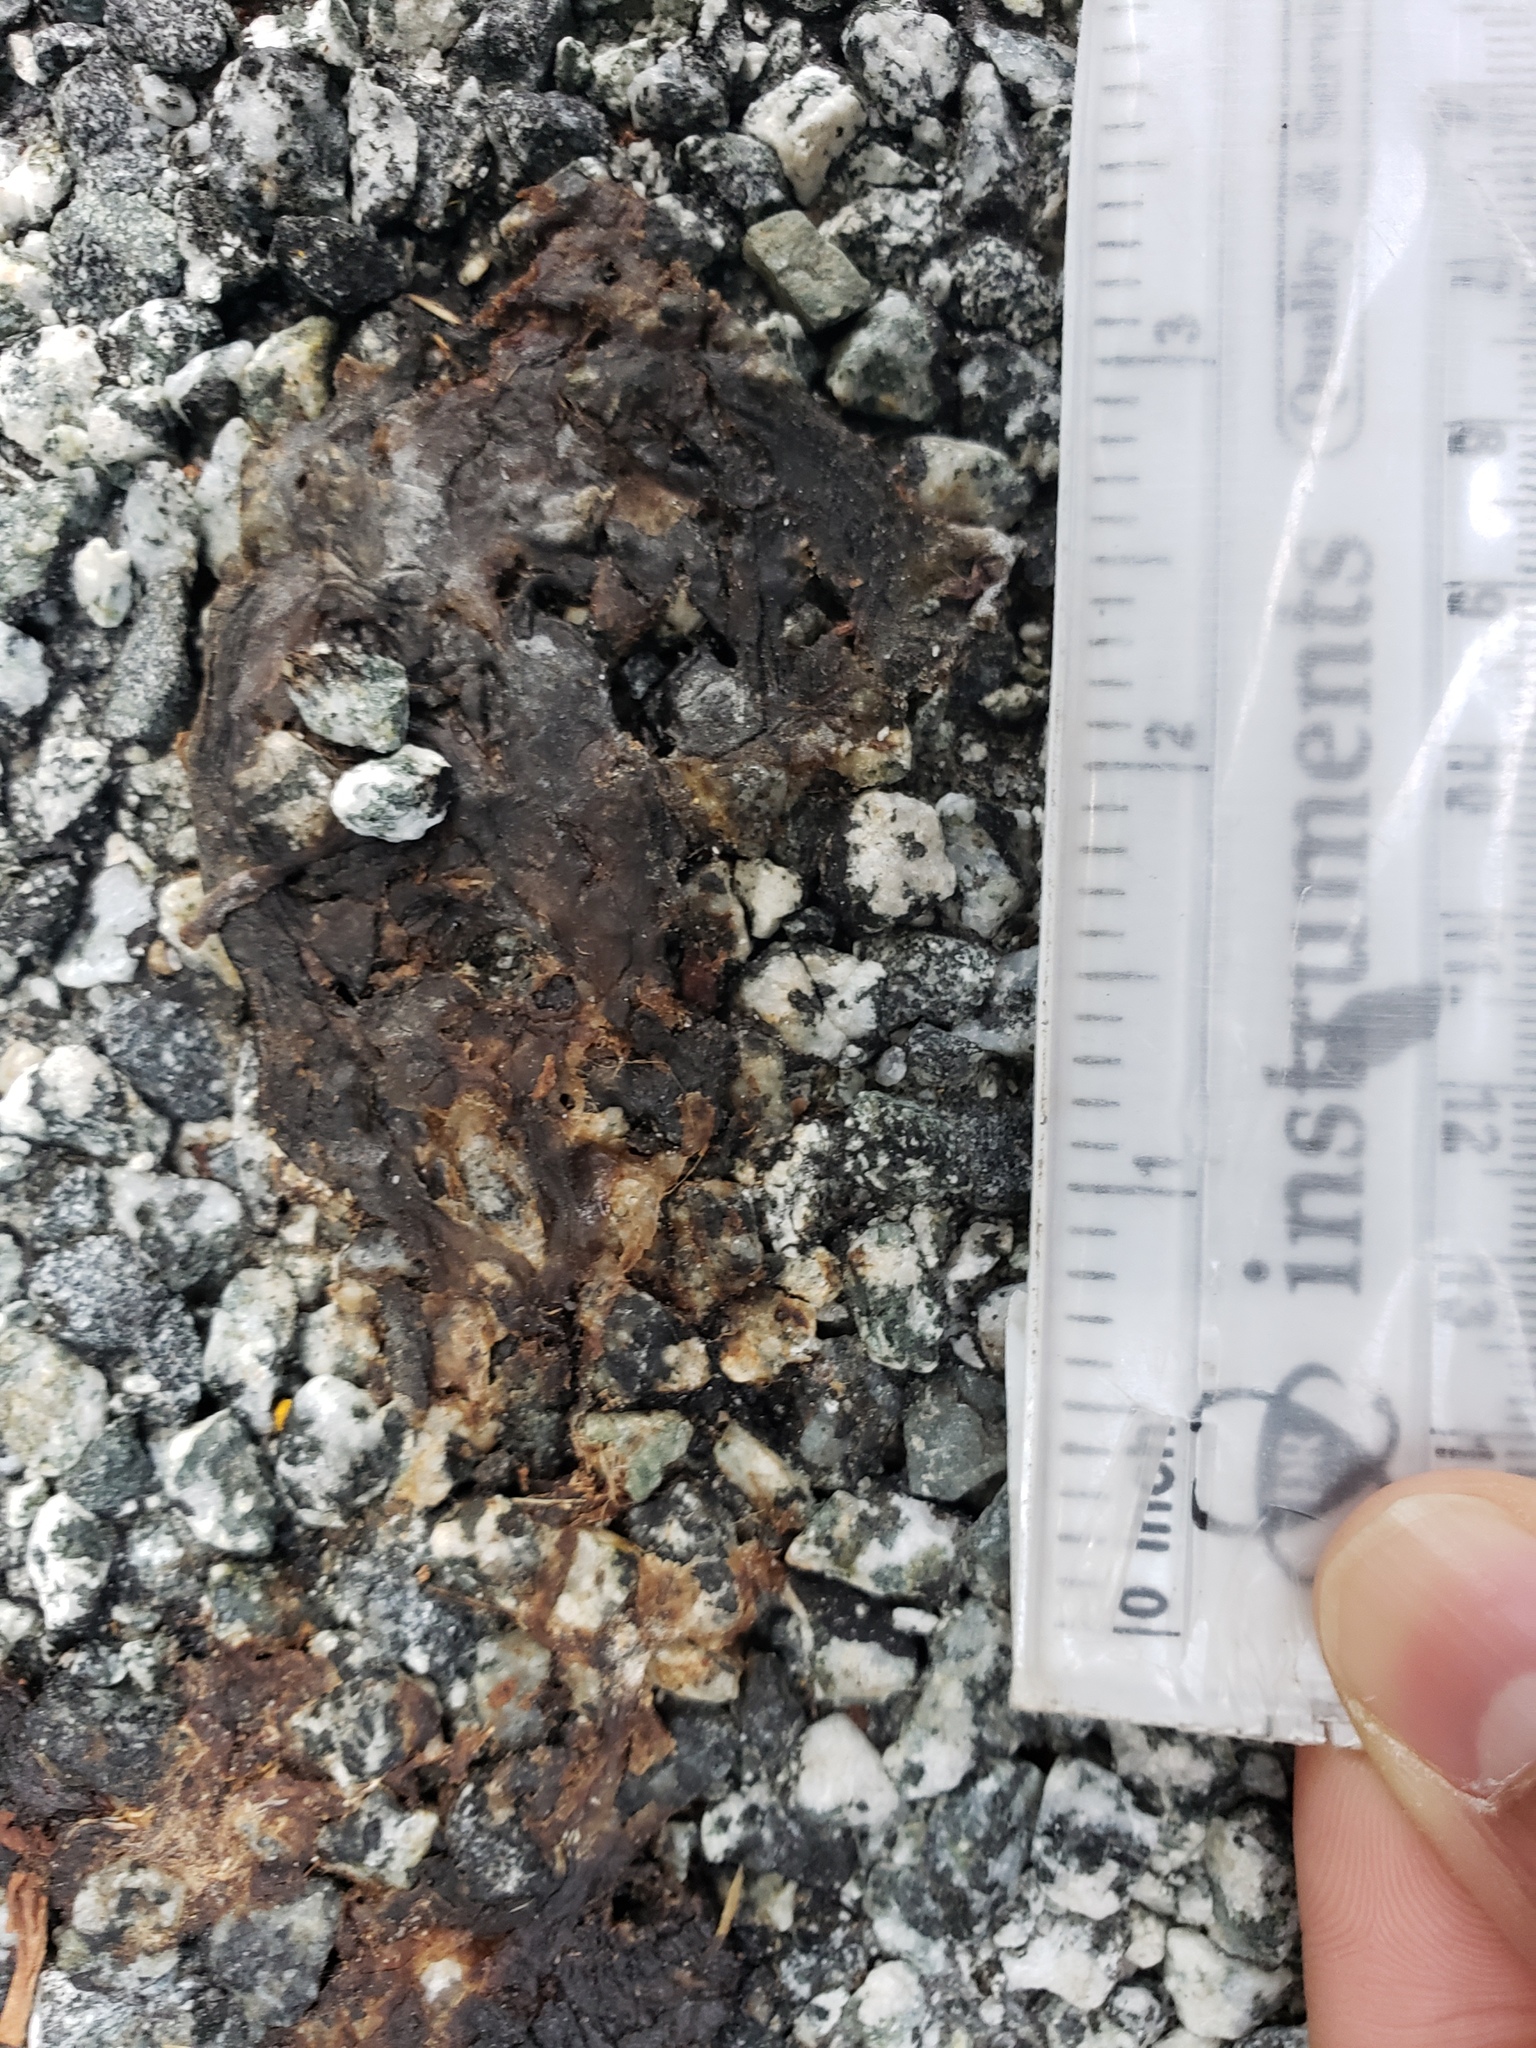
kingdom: Animalia
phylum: Chordata
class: Amphibia
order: Caudata
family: Salamandridae
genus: Taricha
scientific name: Taricha
